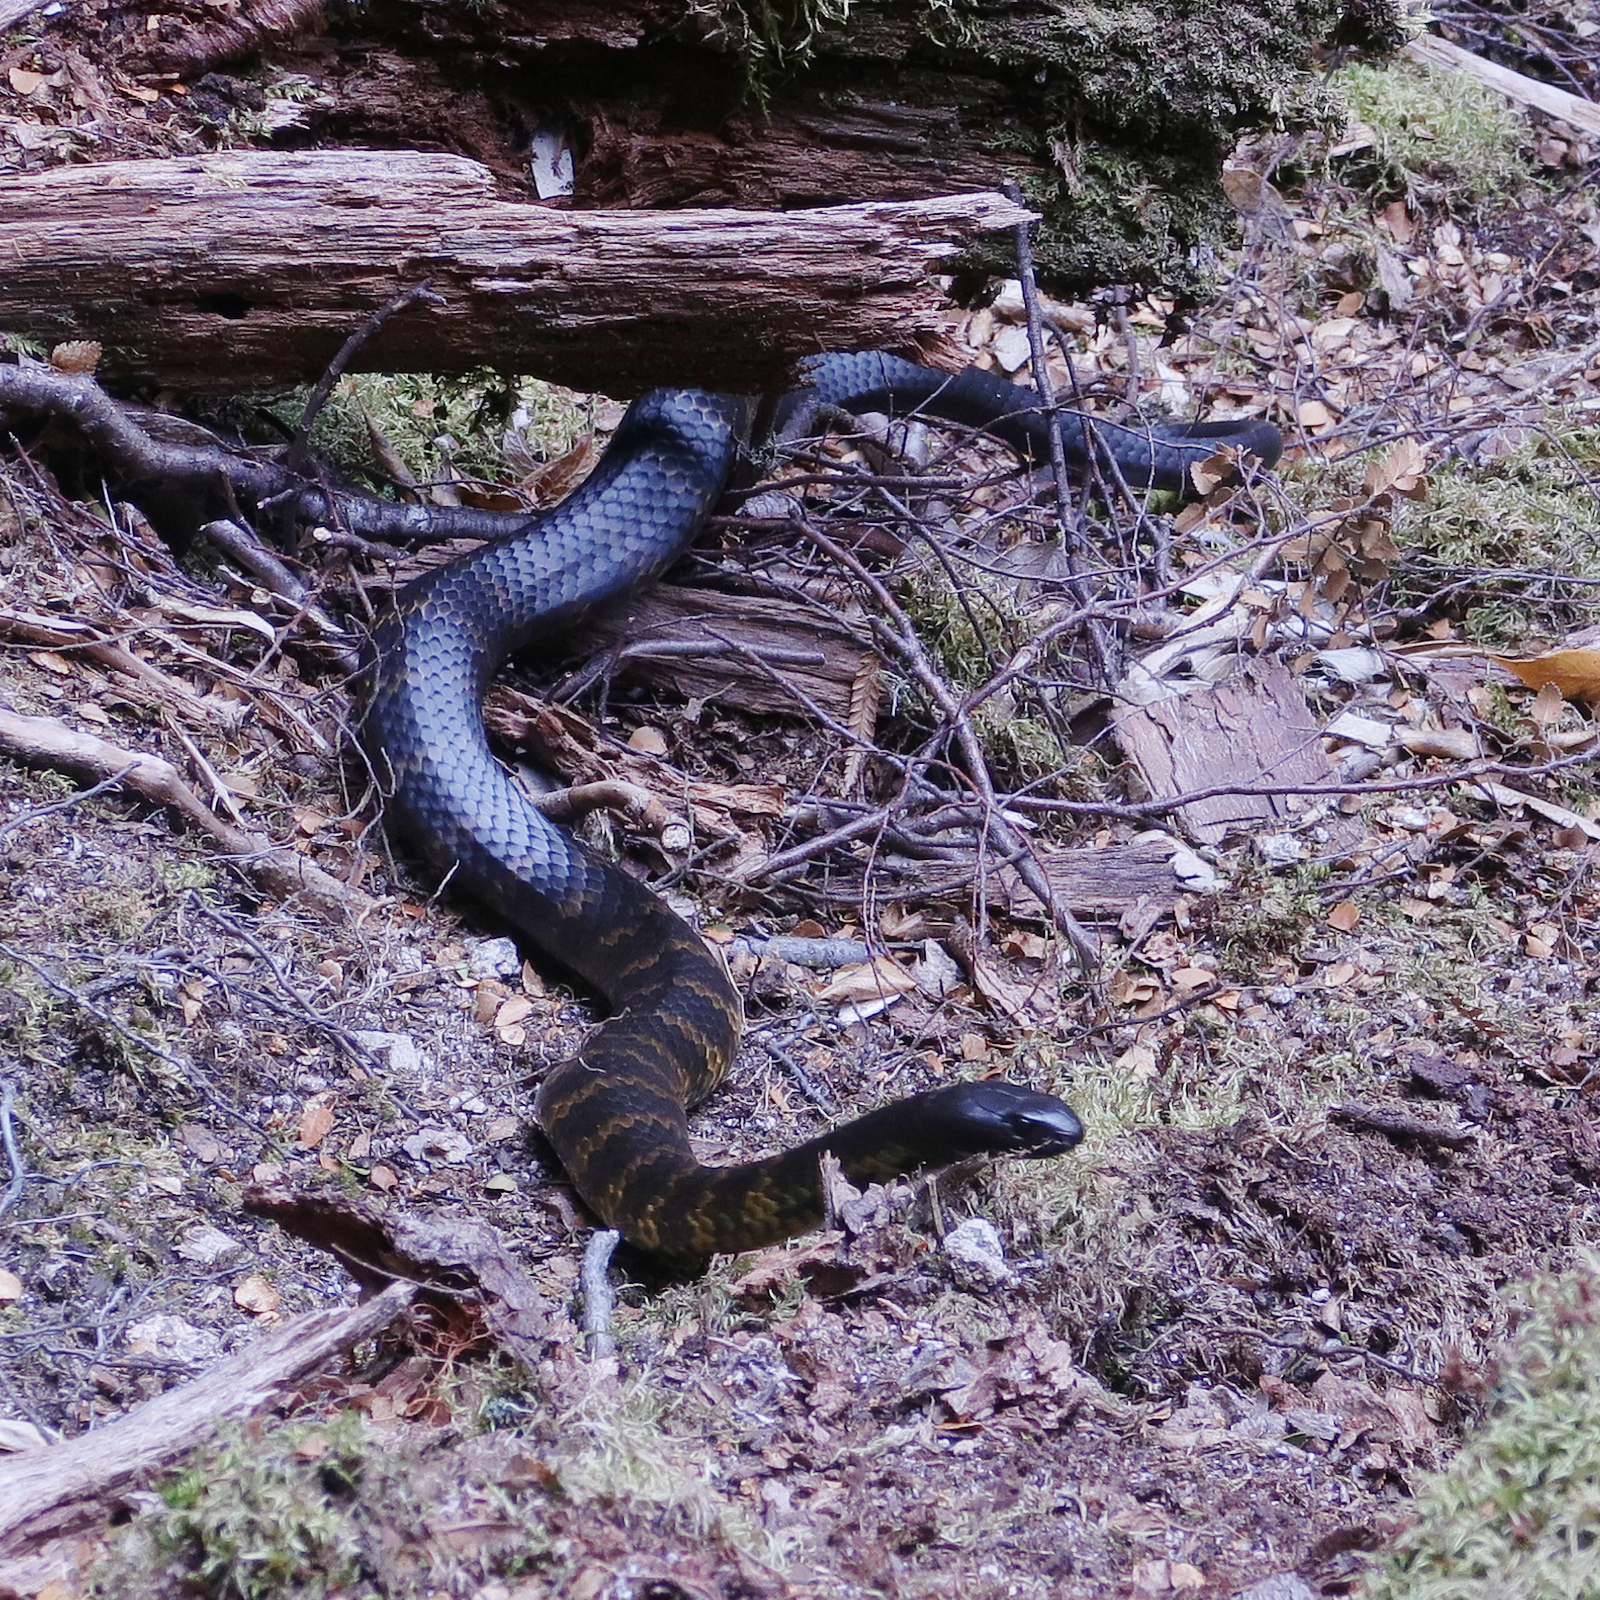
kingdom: Animalia
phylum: Chordata
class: Squamata
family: Elapidae
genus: Notechis
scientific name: Notechis scutatus
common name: Mainland tiger snake
